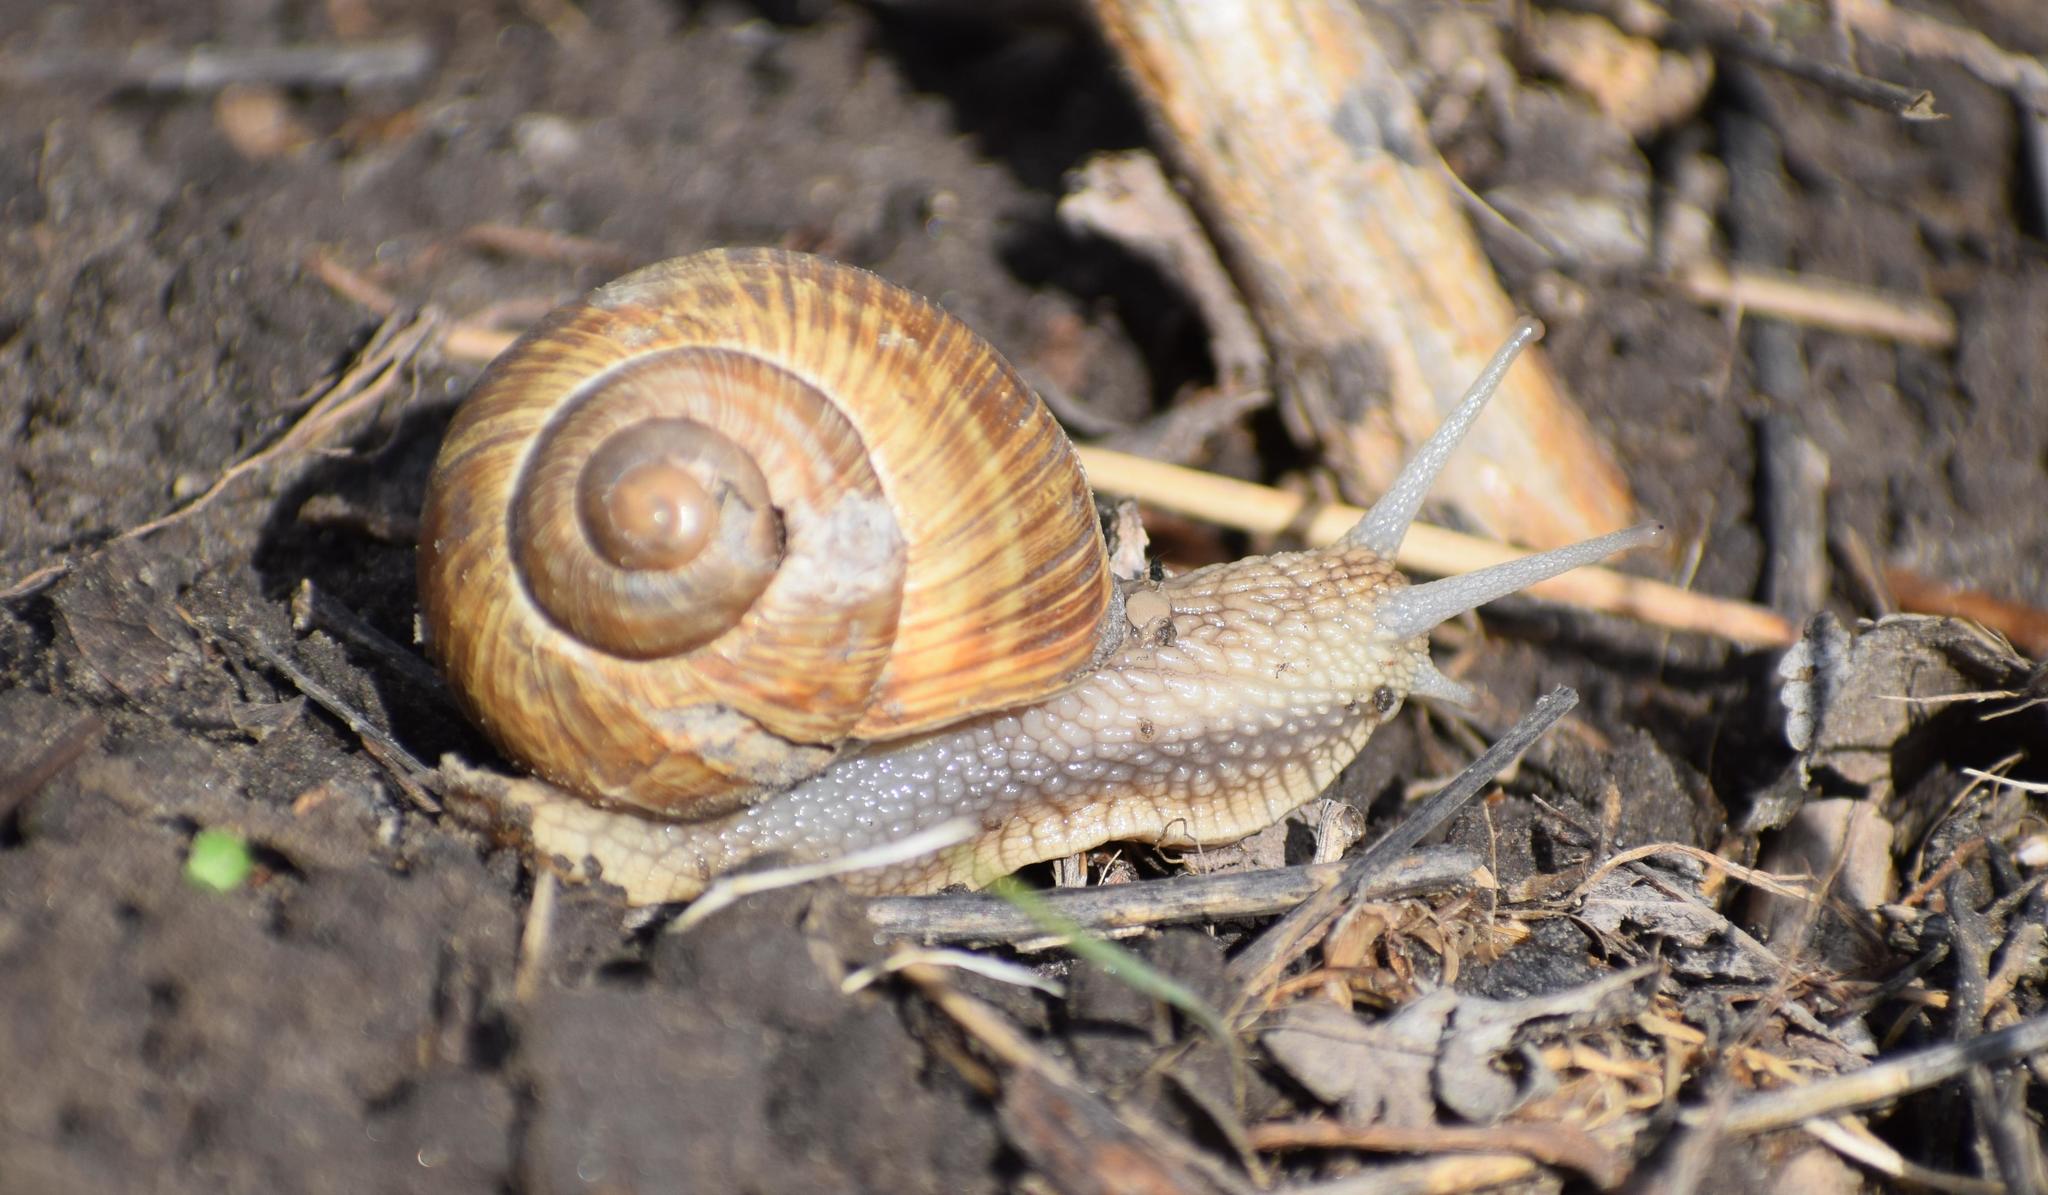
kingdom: Animalia
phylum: Mollusca
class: Gastropoda
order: Stylommatophora
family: Helicidae
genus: Helix
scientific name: Helix pomatia
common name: Roman snail
